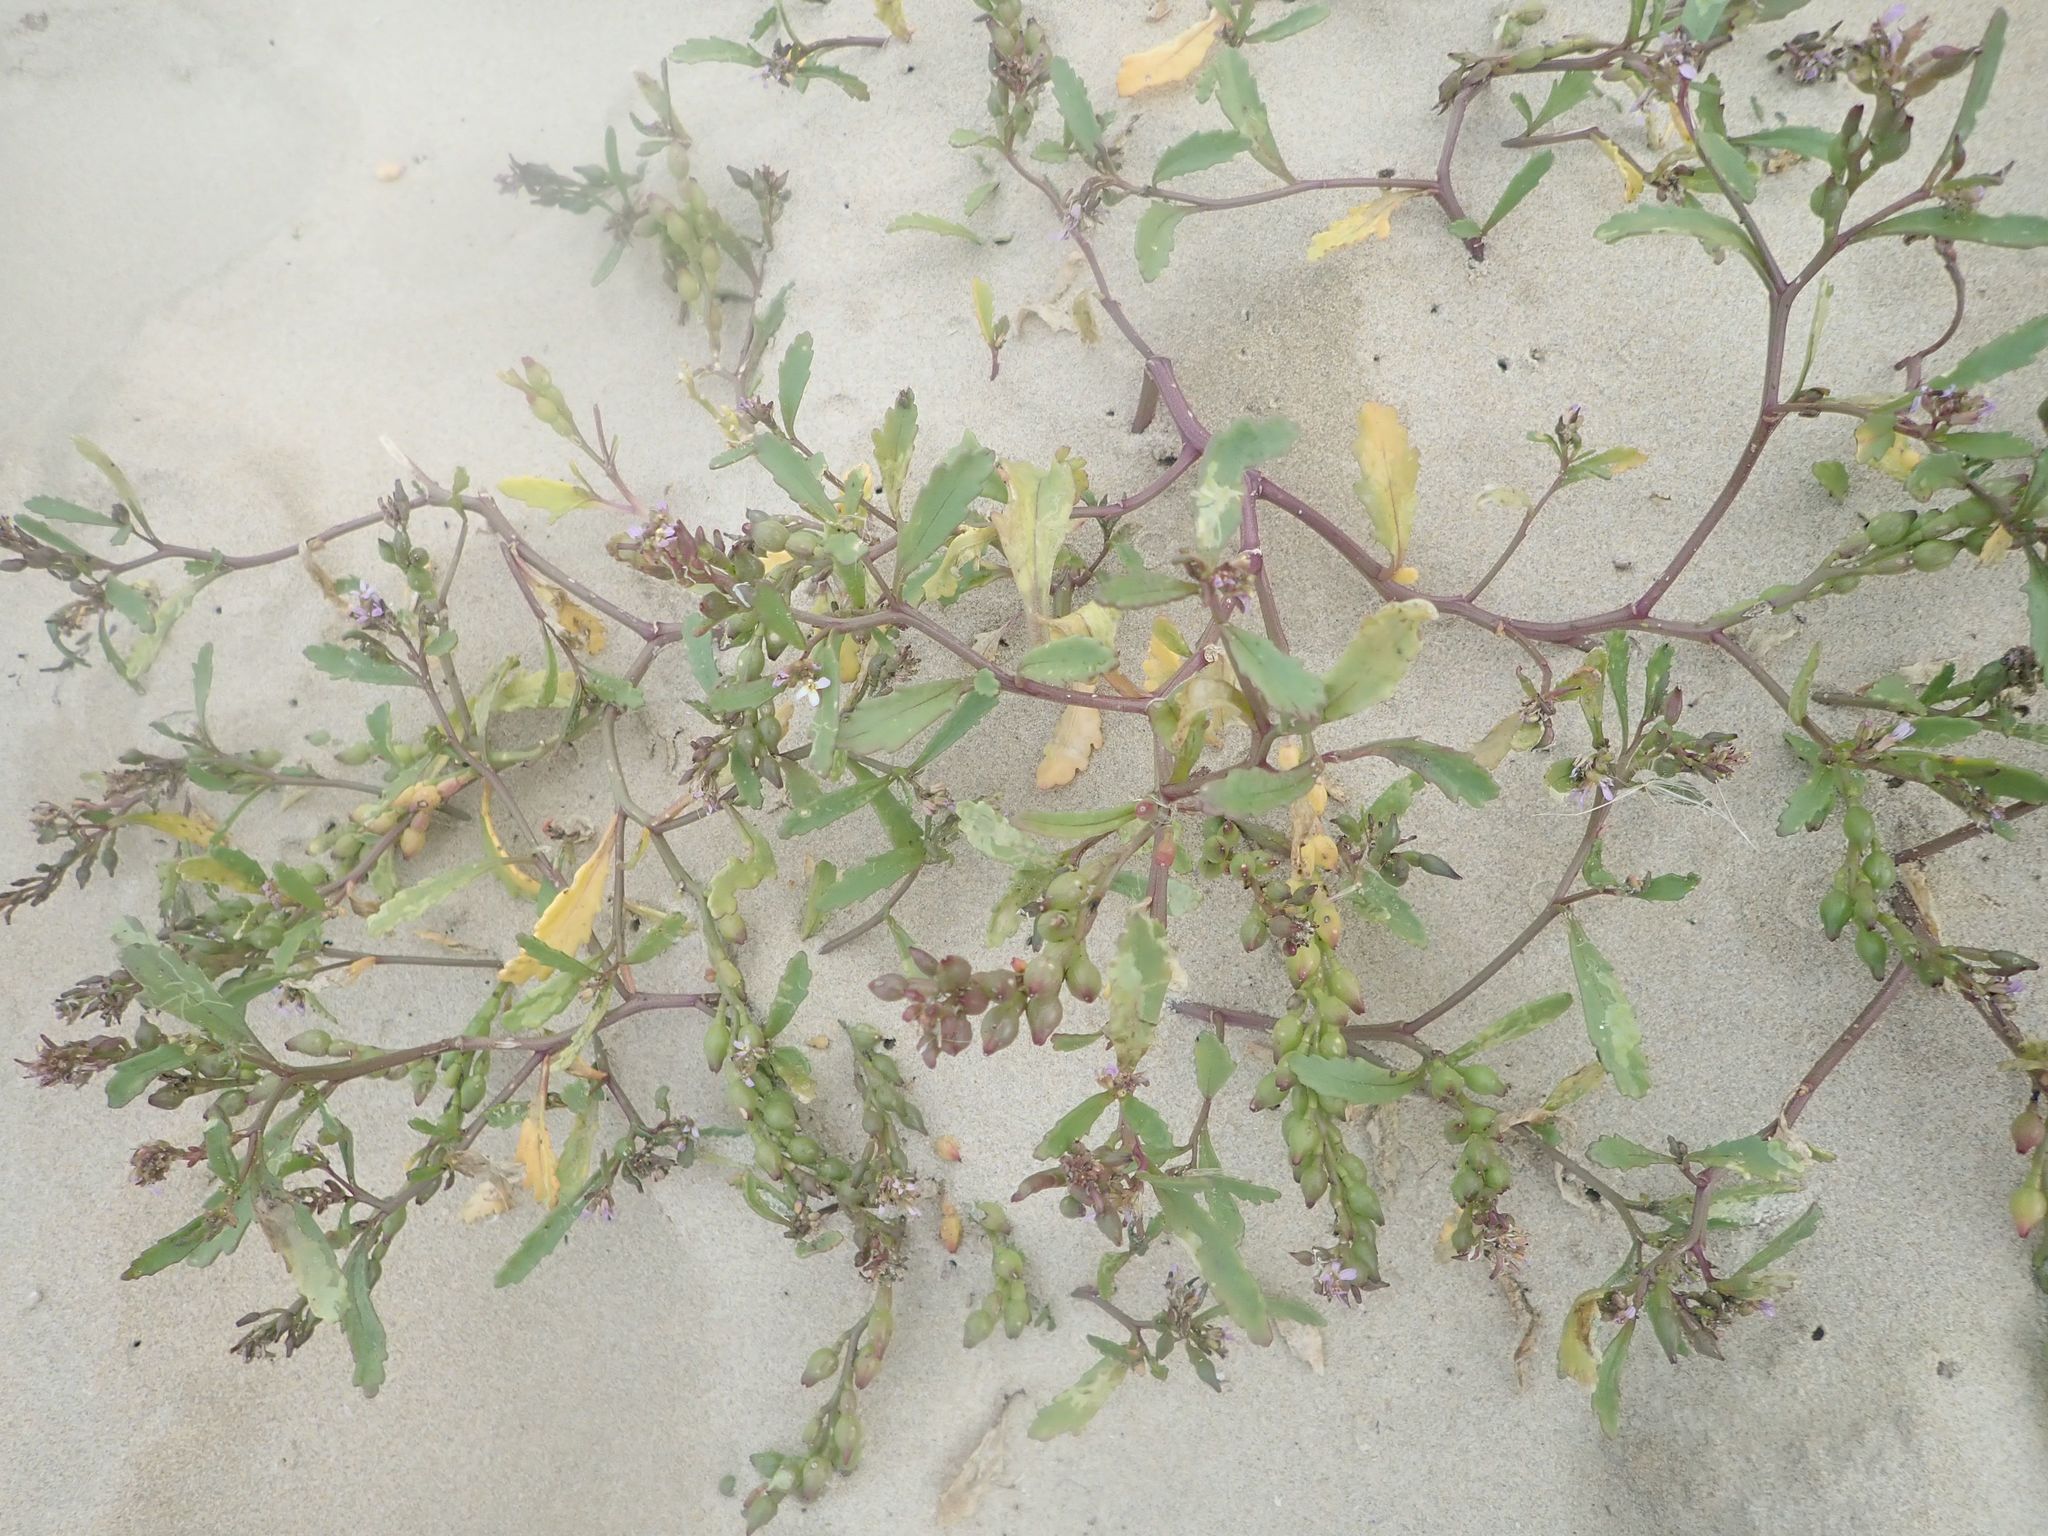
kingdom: Plantae
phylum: Tracheophyta
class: Magnoliopsida
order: Brassicales
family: Brassicaceae
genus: Cakile
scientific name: Cakile edentula
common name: American sea rocket
